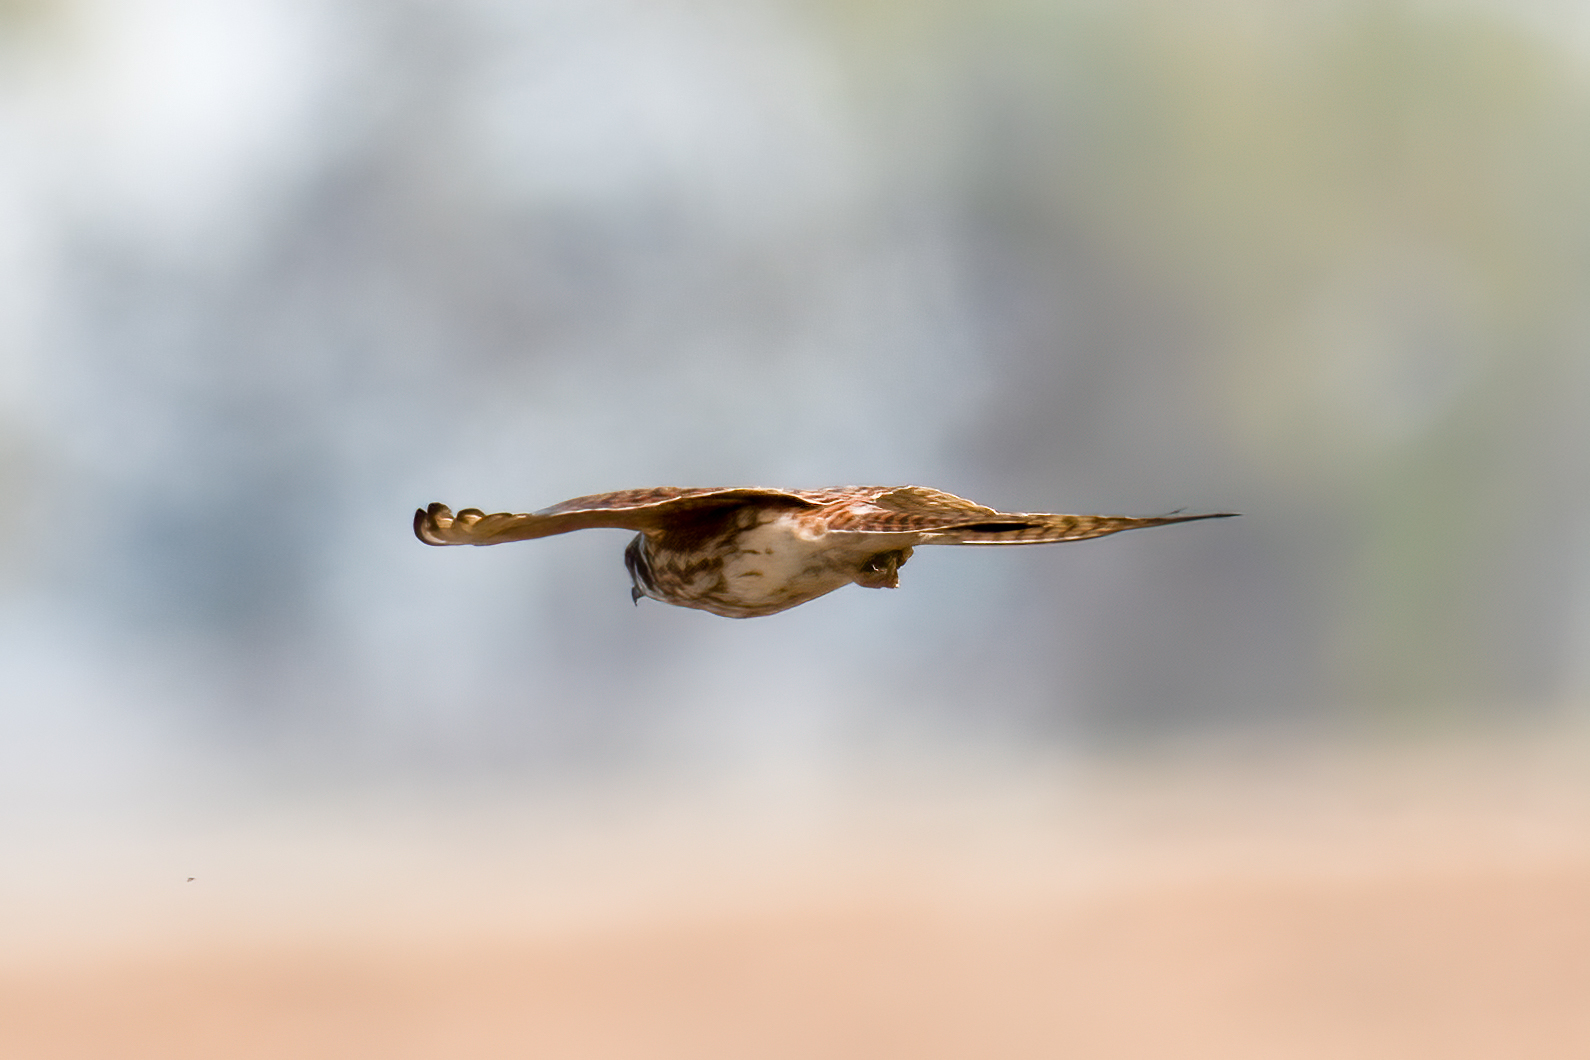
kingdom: Animalia
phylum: Chordata
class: Aves
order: Falconiformes
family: Falconidae
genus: Falco
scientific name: Falco sparverius
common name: American kestrel
